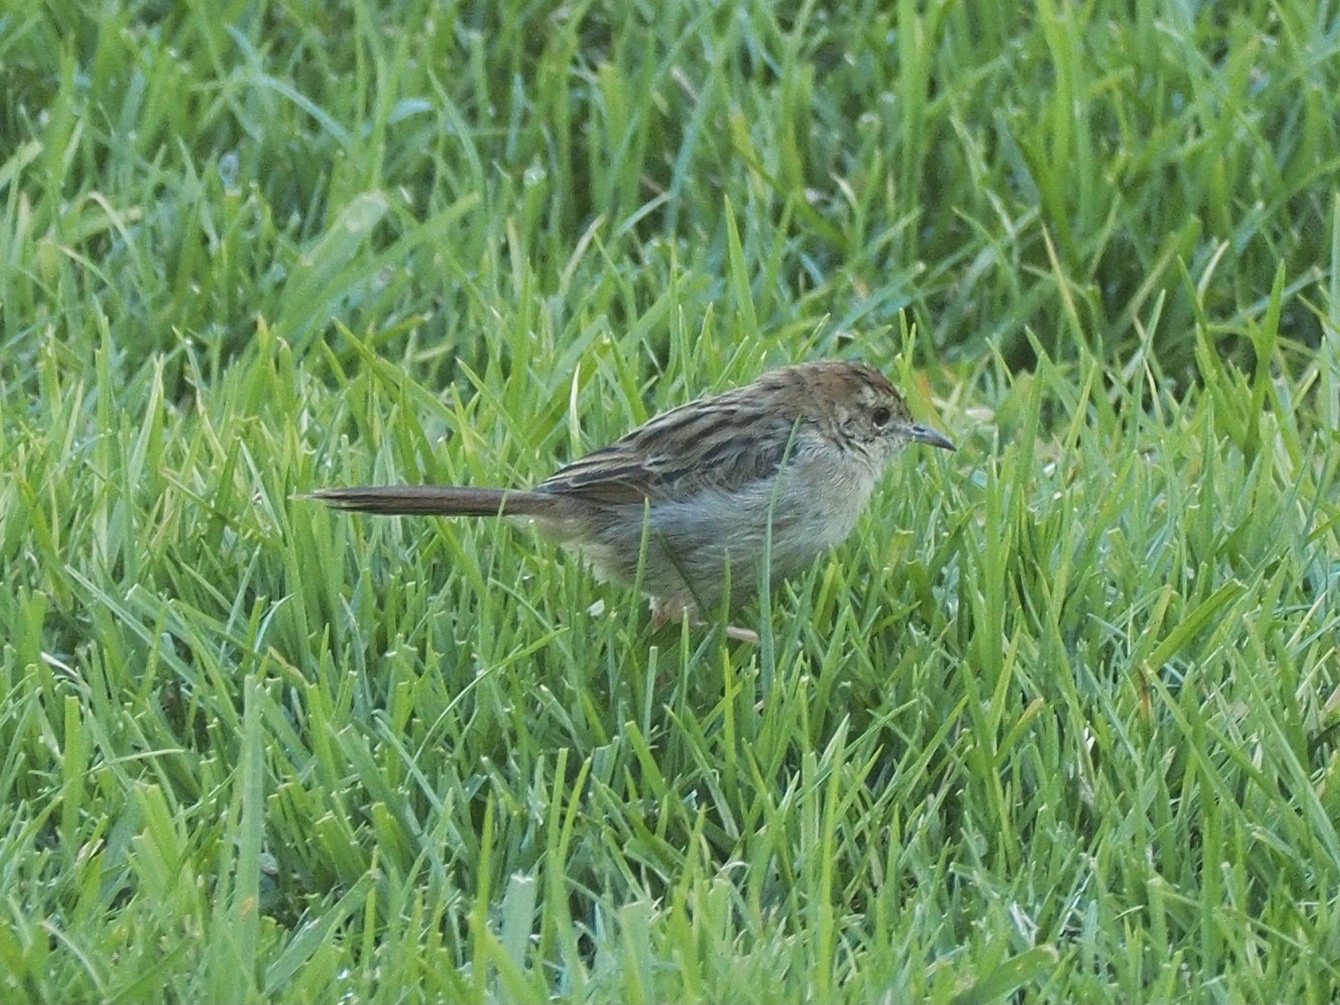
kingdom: Animalia
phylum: Chordata
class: Aves
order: Passeriformes
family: Cisticolidae
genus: Cisticola
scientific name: Cisticola lais
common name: Wailing cisticola
